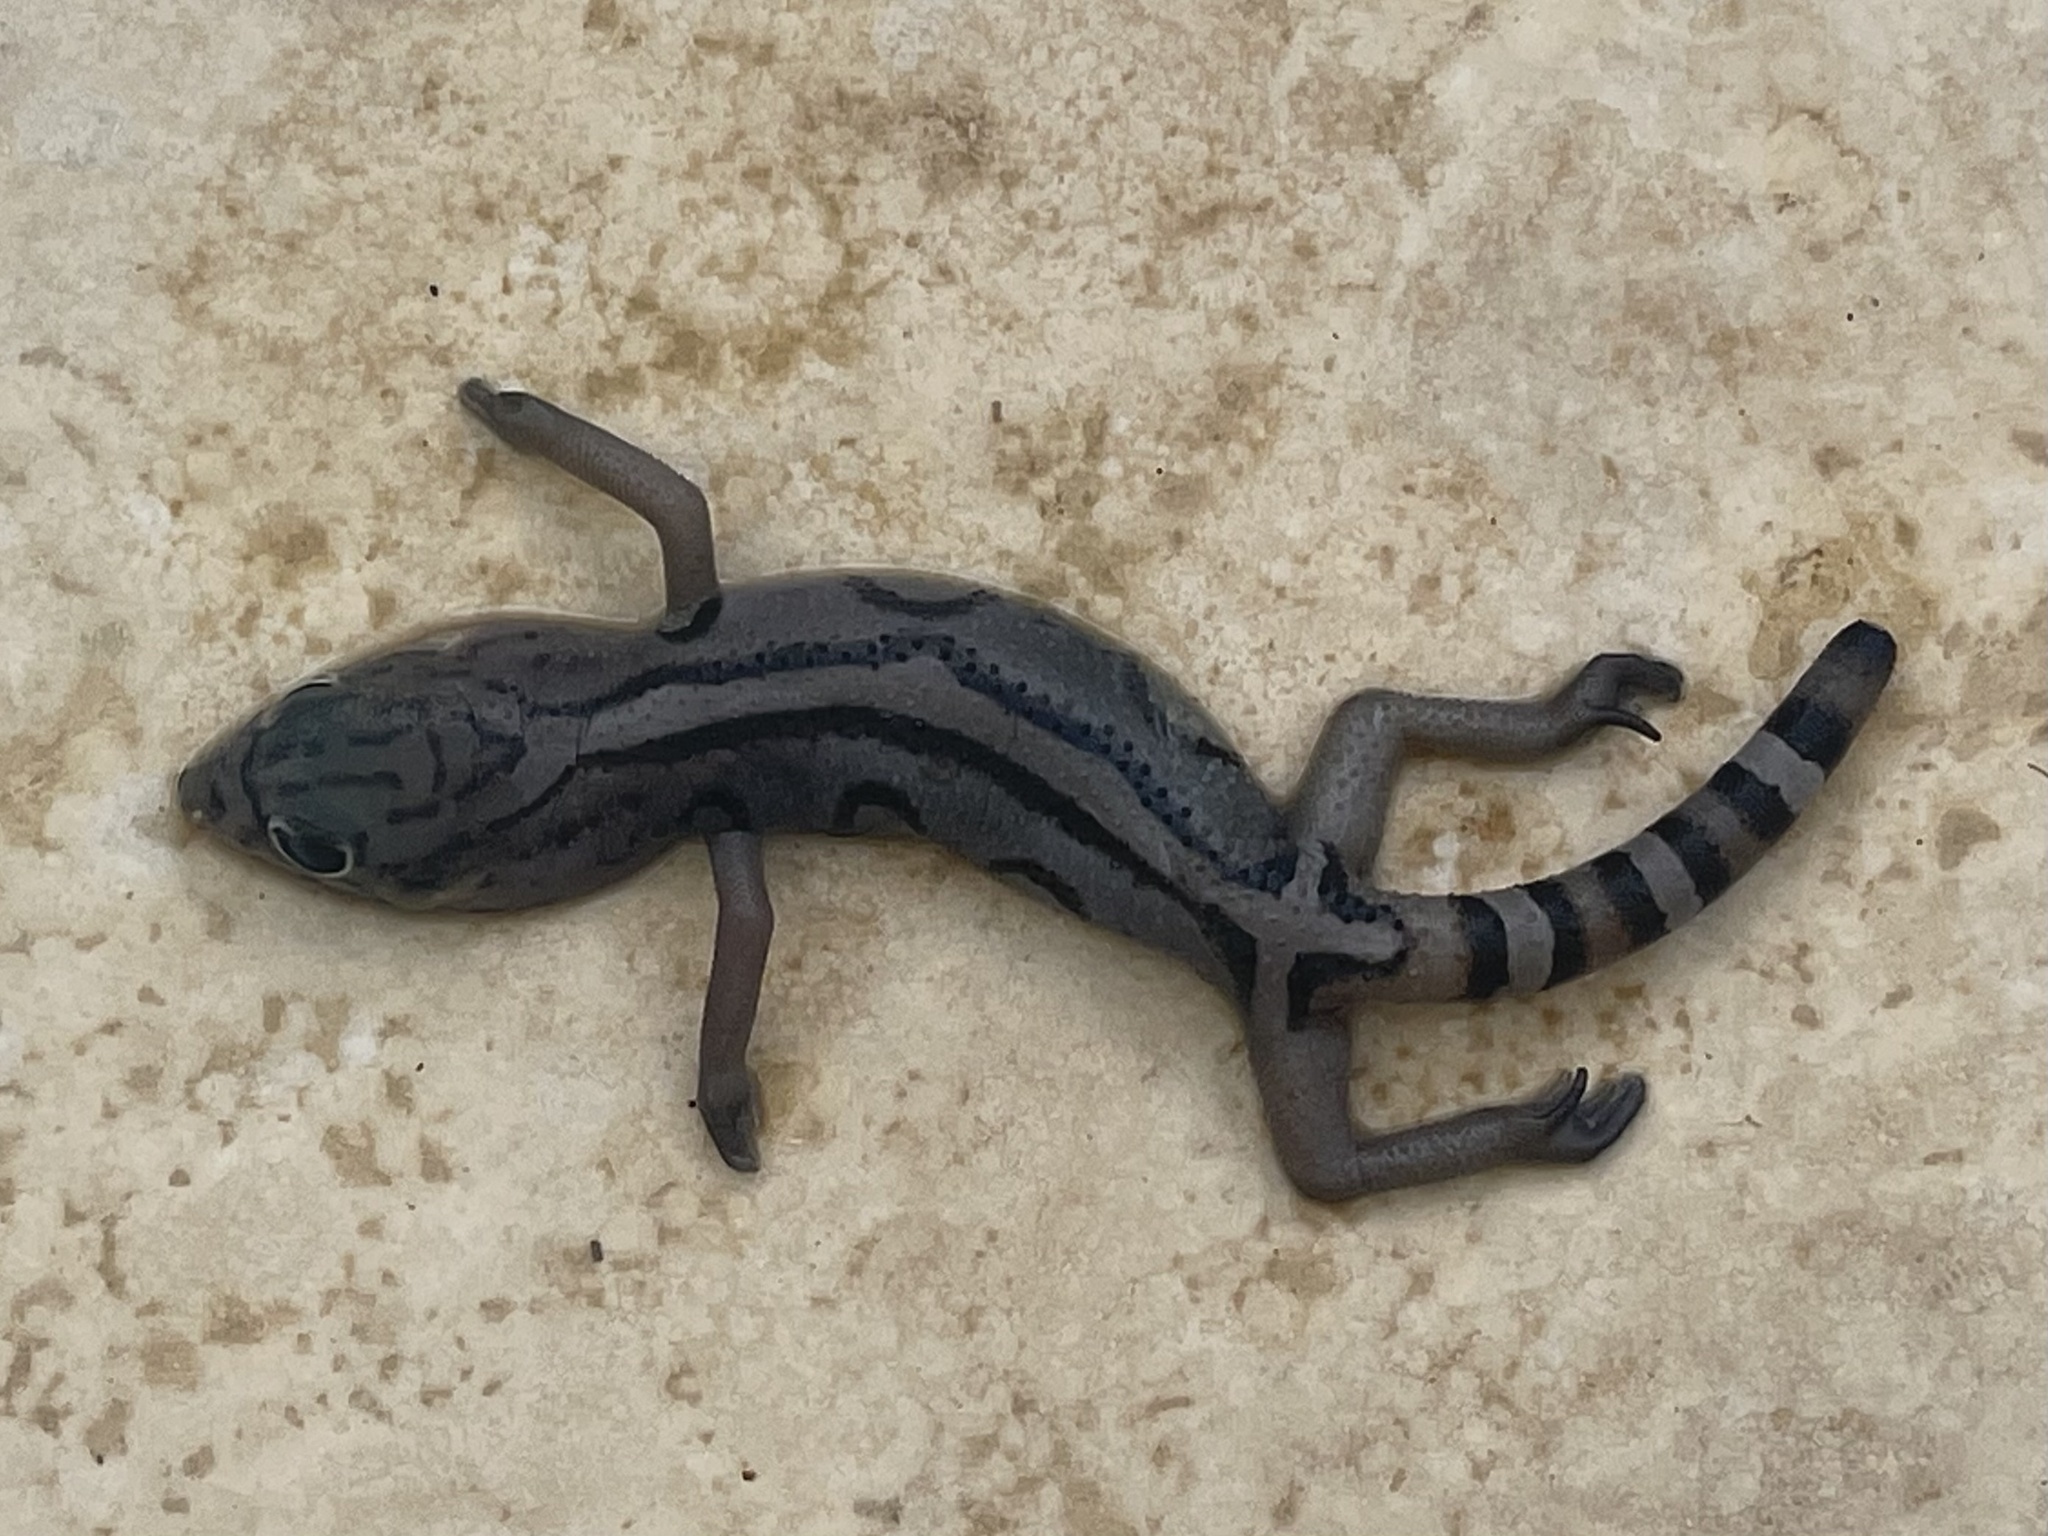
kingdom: Animalia
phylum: Chordata
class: Squamata
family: Eublepharidae
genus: Coleonyx
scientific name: Coleonyx elegans
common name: Yucatan banded gecko
